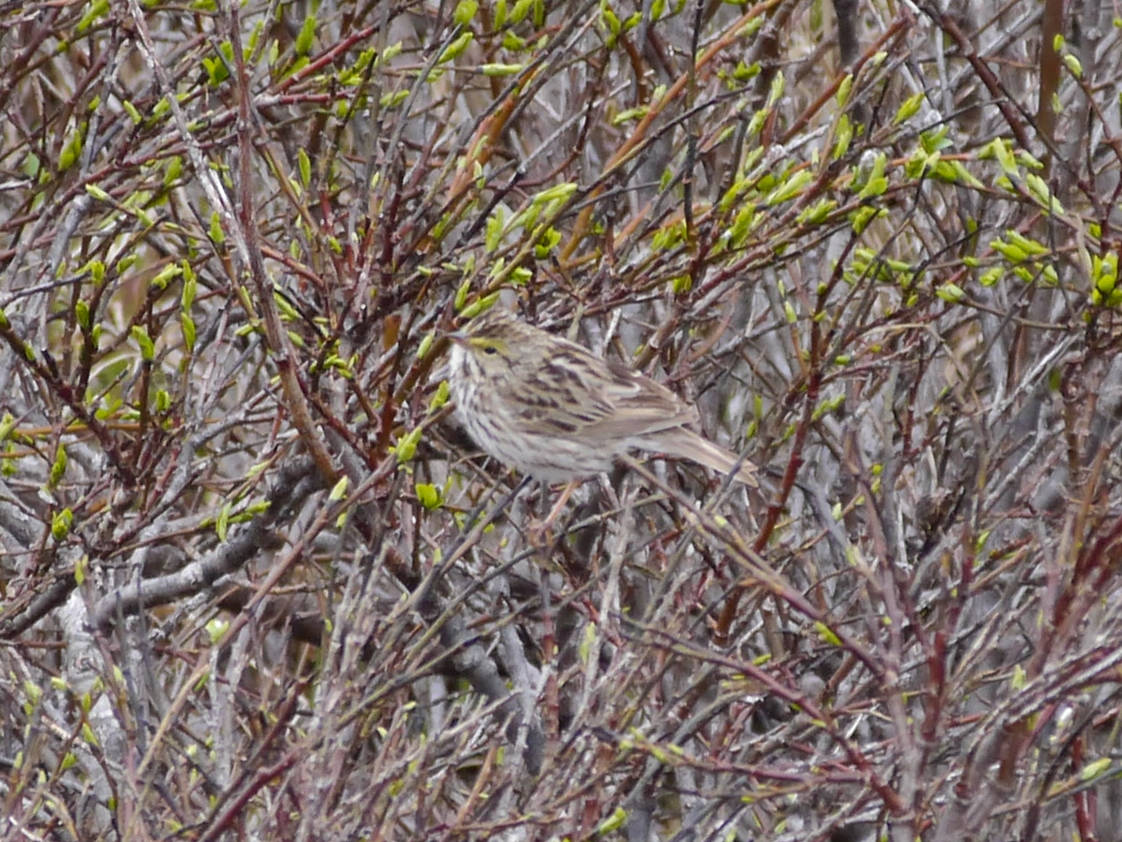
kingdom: Animalia
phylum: Chordata
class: Aves
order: Passeriformes
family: Passerellidae
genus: Passerculus
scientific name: Passerculus sandwichensis
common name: Savannah sparrow
